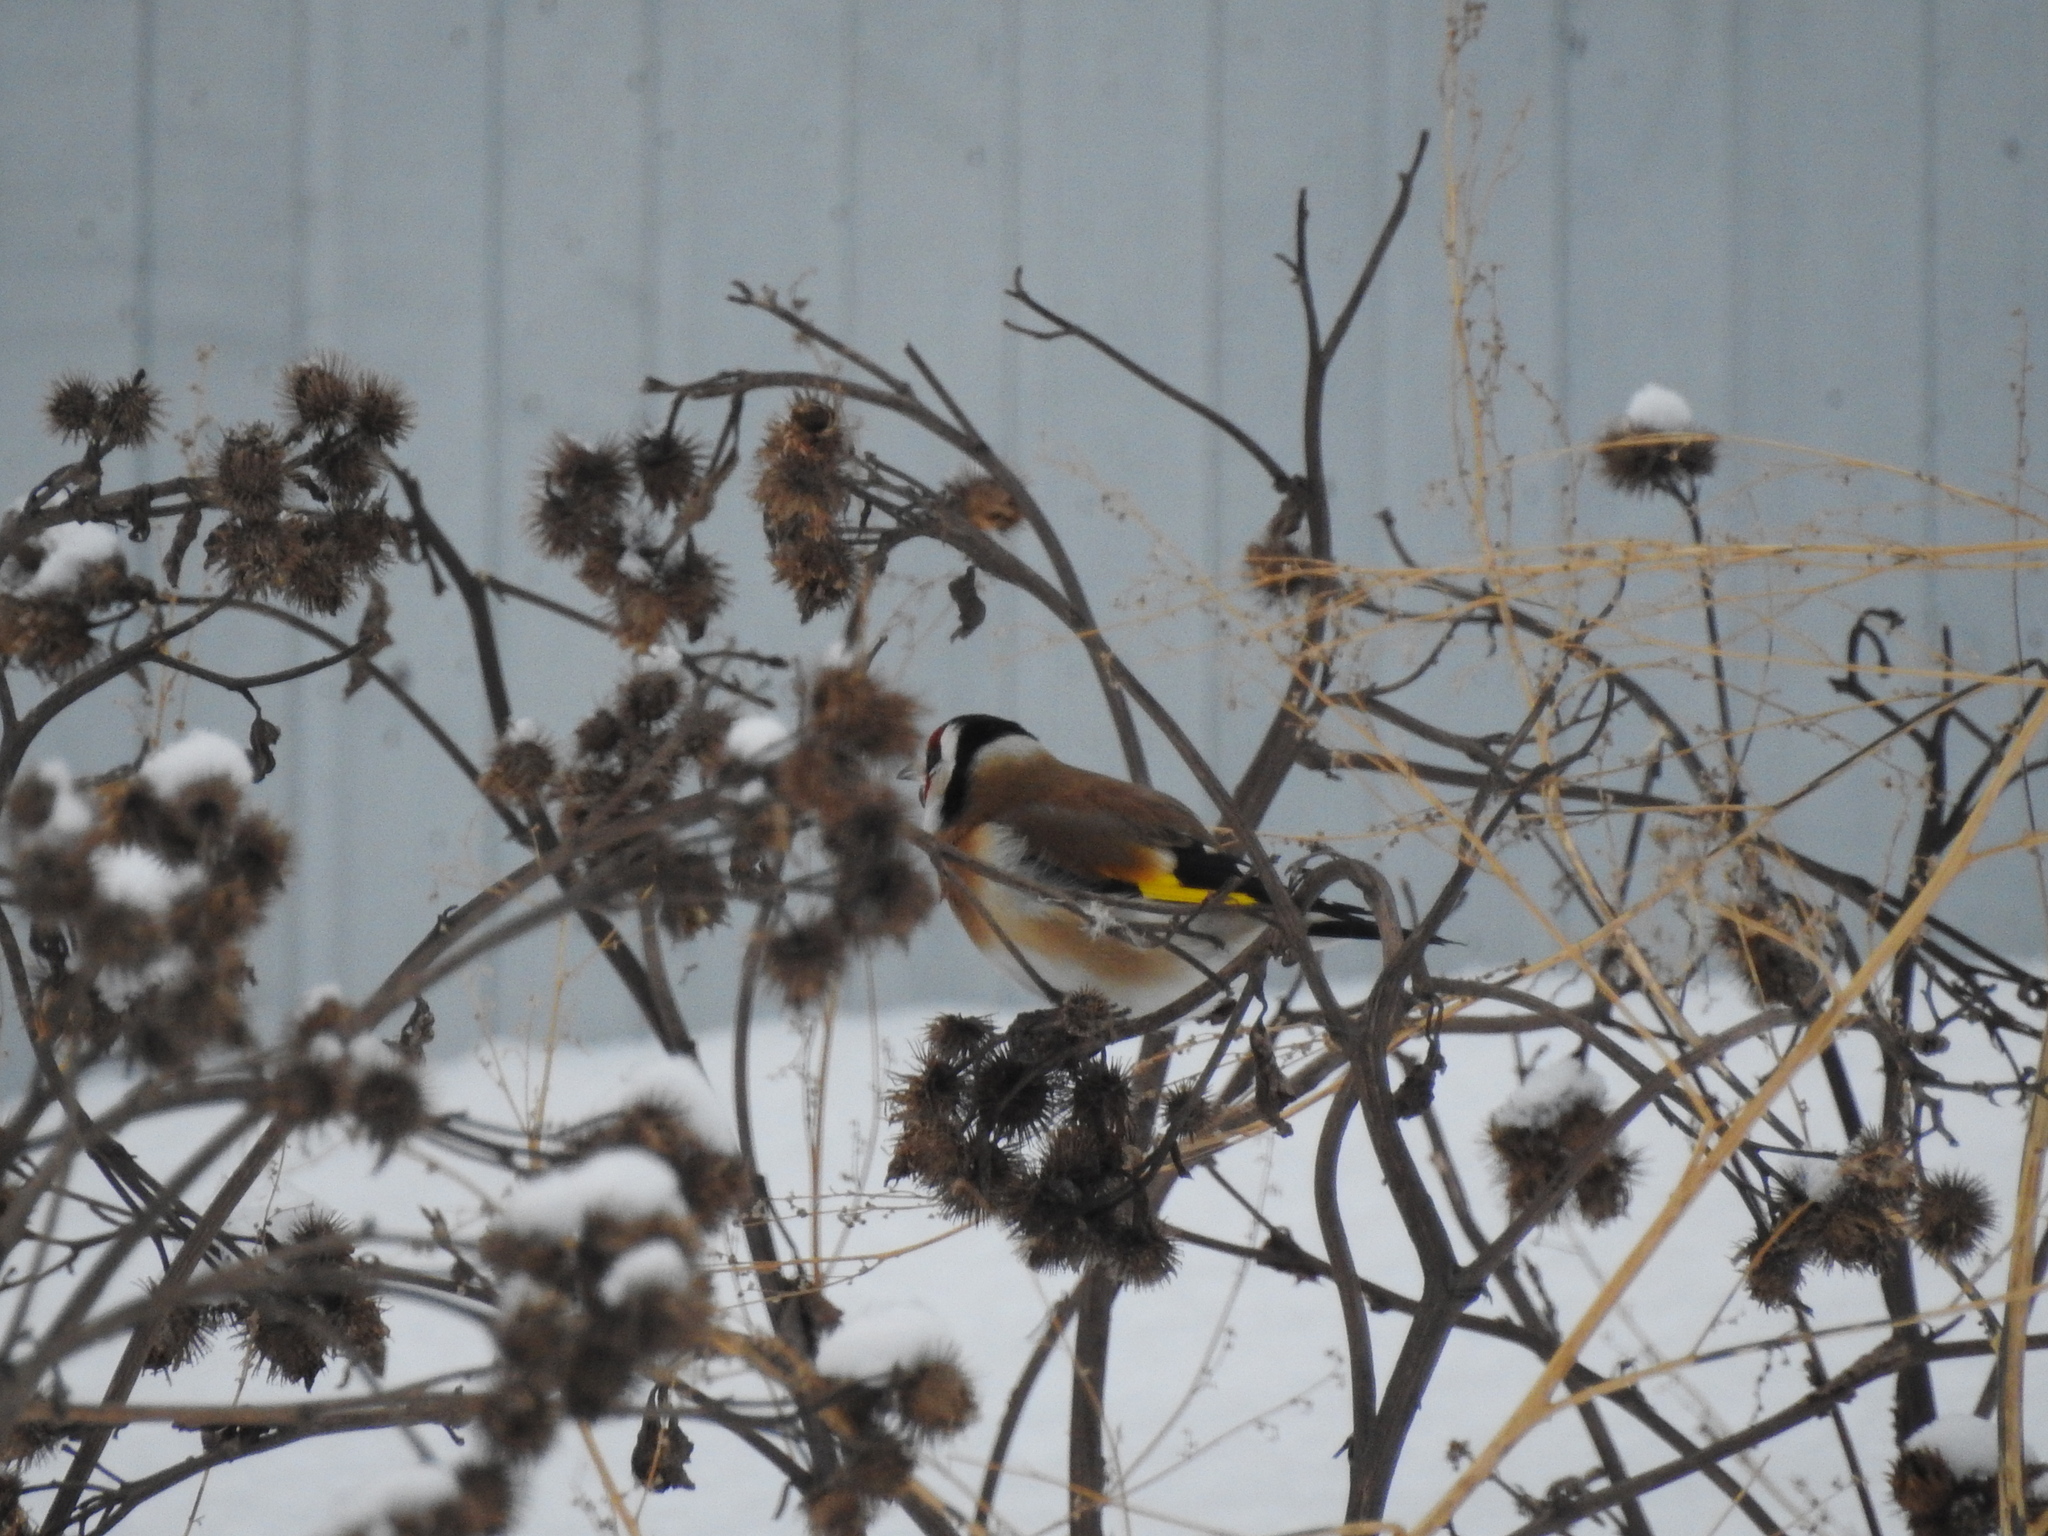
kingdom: Animalia
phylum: Chordata
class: Aves
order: Passeriformes
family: Fringillidae
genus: Carduelis
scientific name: Carduelis carduelis
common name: European goldfinch
